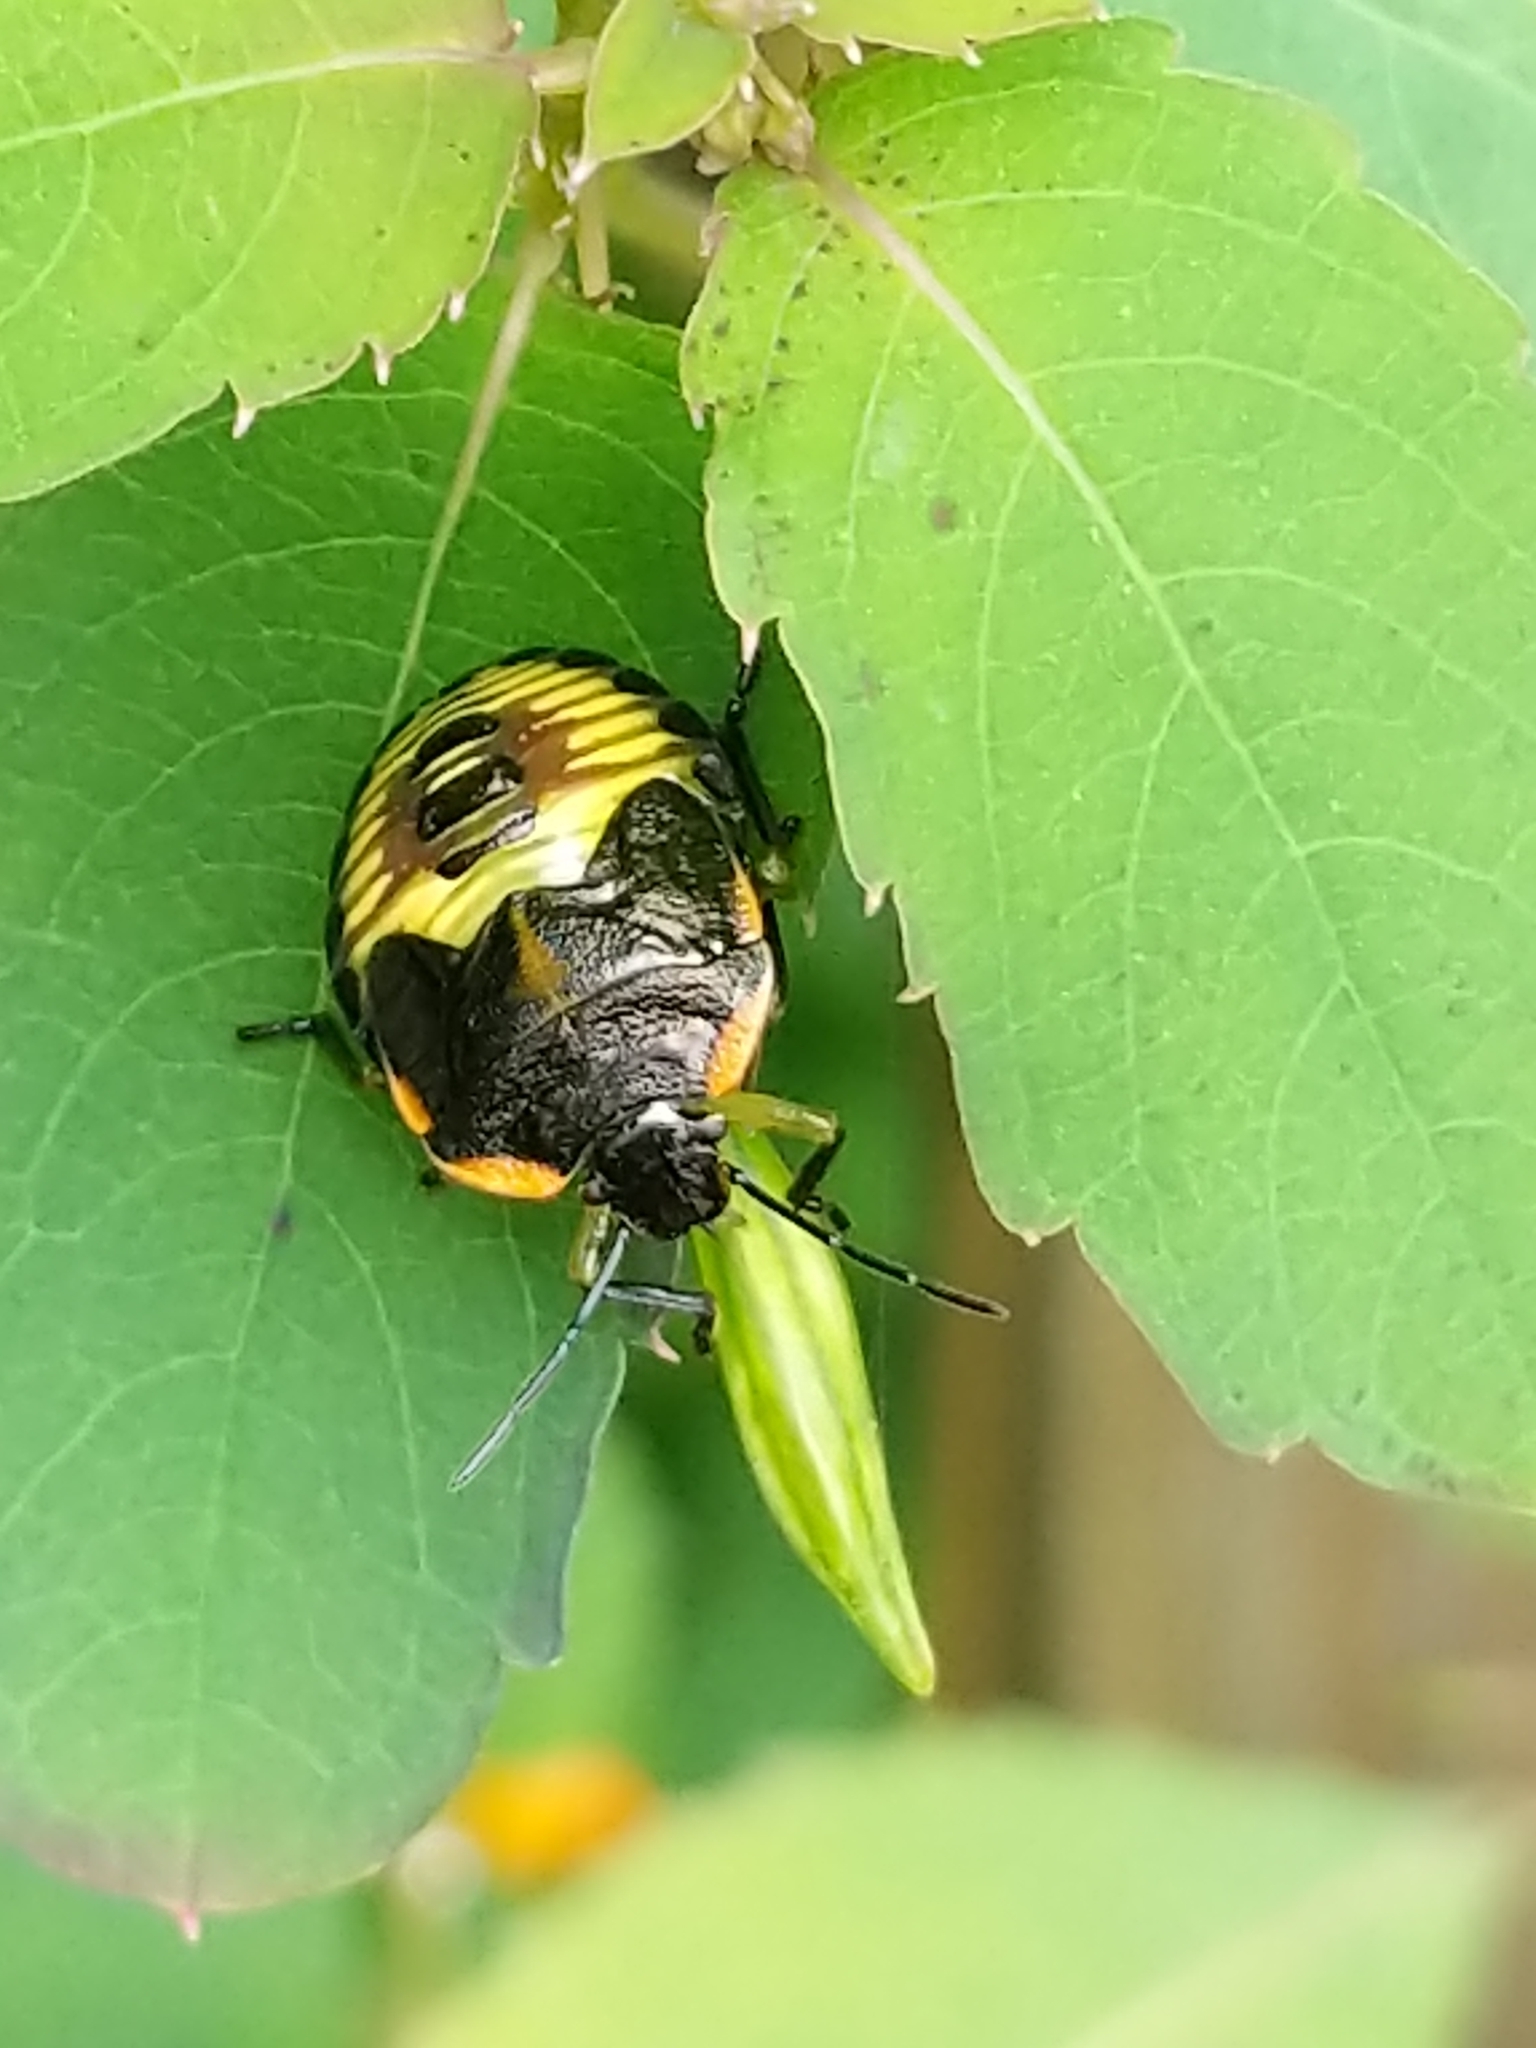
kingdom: Animalia
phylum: Arthropoda
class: Insecta
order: Hemiptera
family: Pentatomidae
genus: Chinavia
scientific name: Chinavia hilaris
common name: Green stink bug
